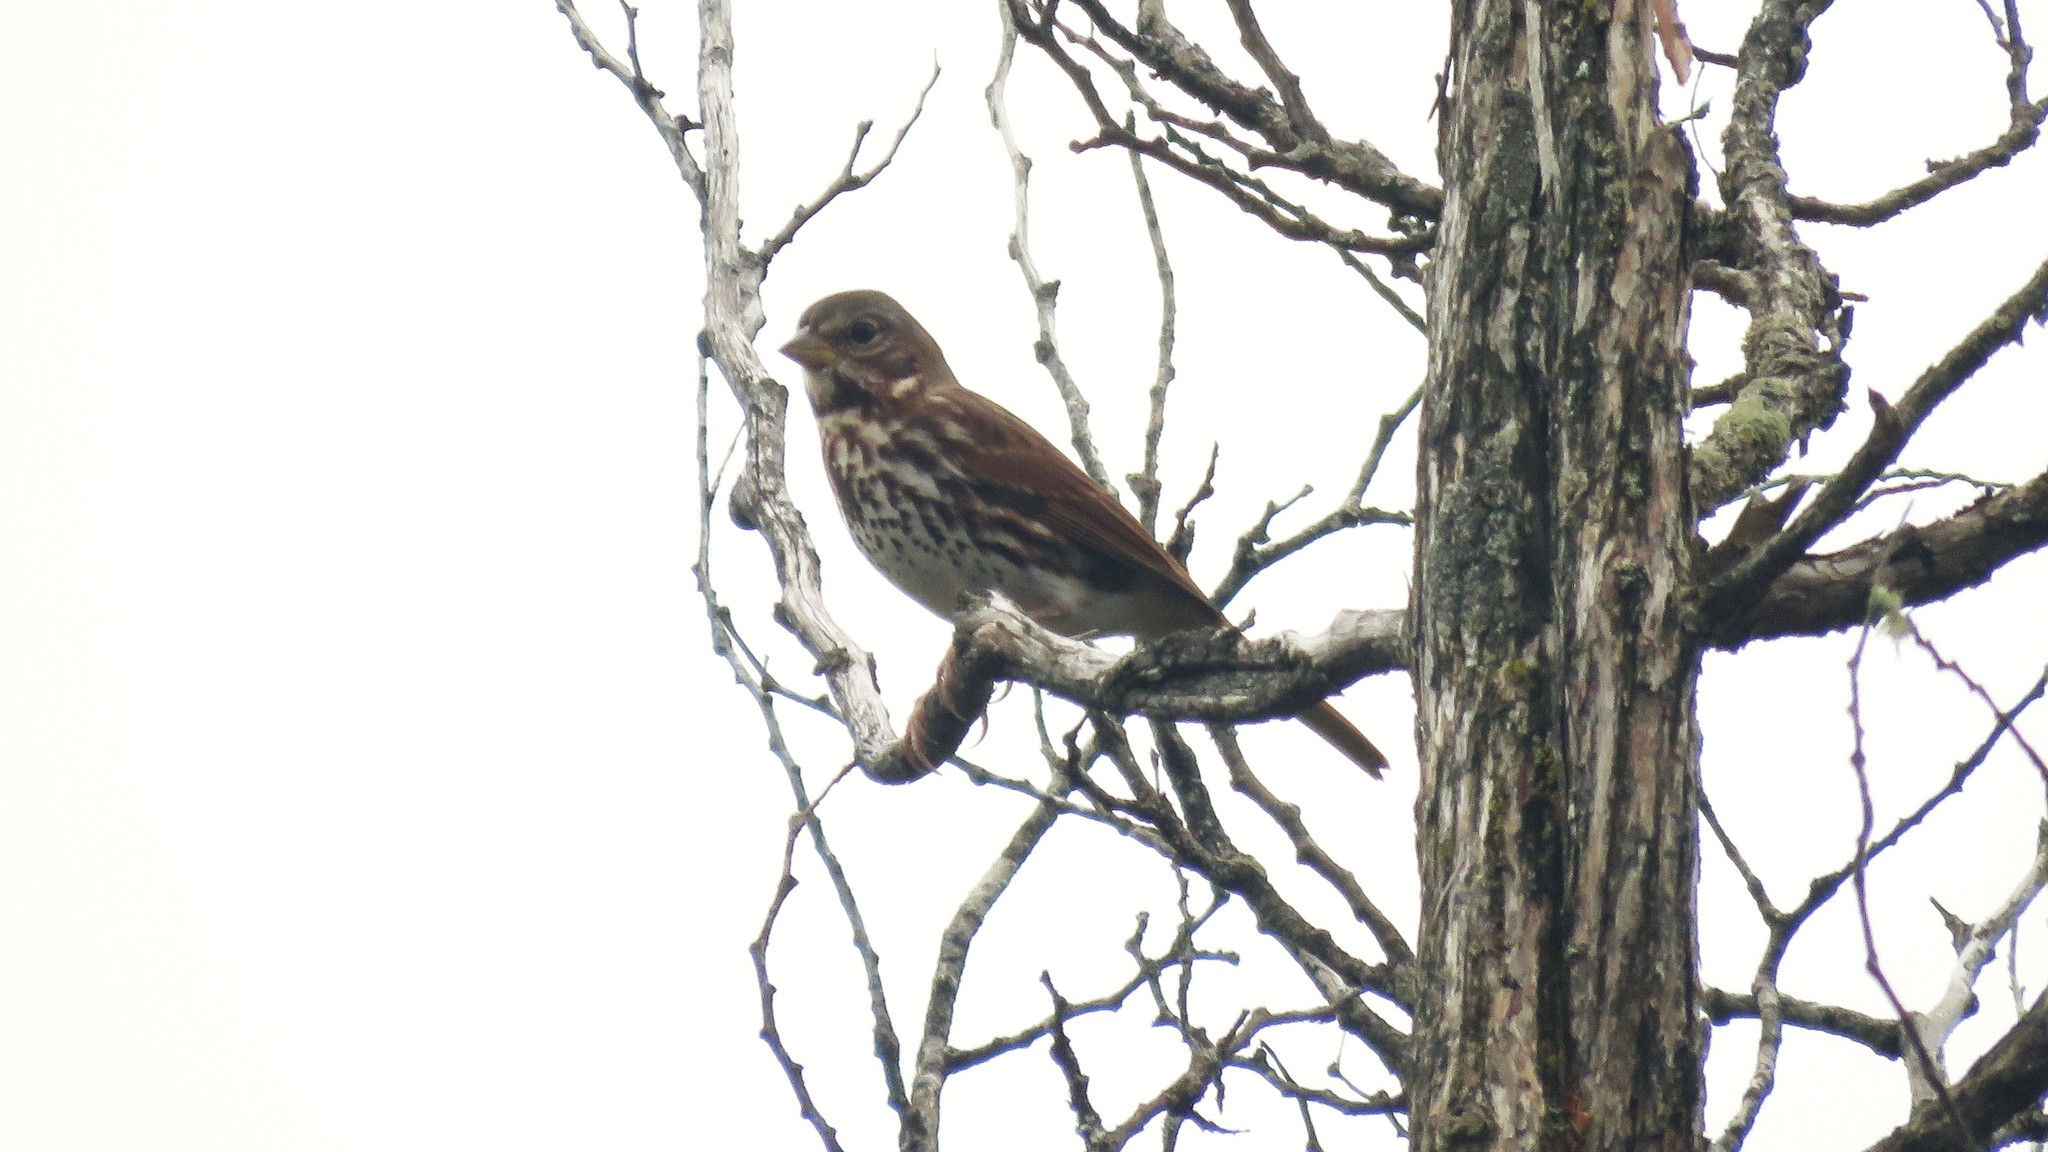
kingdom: Animalia
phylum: Chordata
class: Aves
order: Passeriformes
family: Passerellidae
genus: Passerella
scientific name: Passerella iliaca
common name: Fox sparrow
